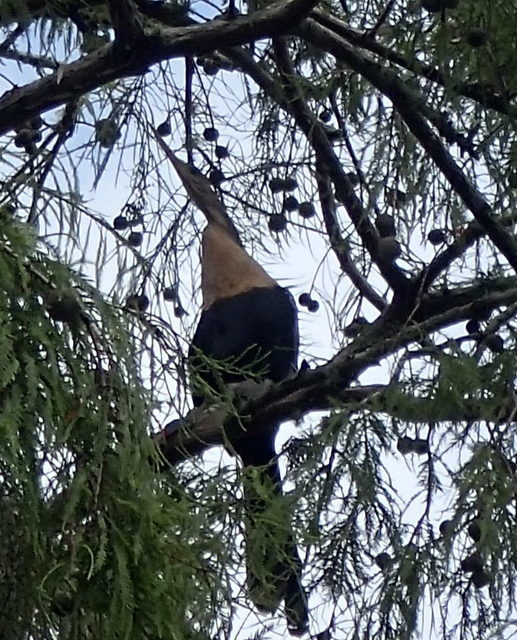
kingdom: Animalia
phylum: Chordata
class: Aves
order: Suliformes
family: Anhingidae
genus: Anhinga
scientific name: Anhinga anhinga
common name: Anhinga
